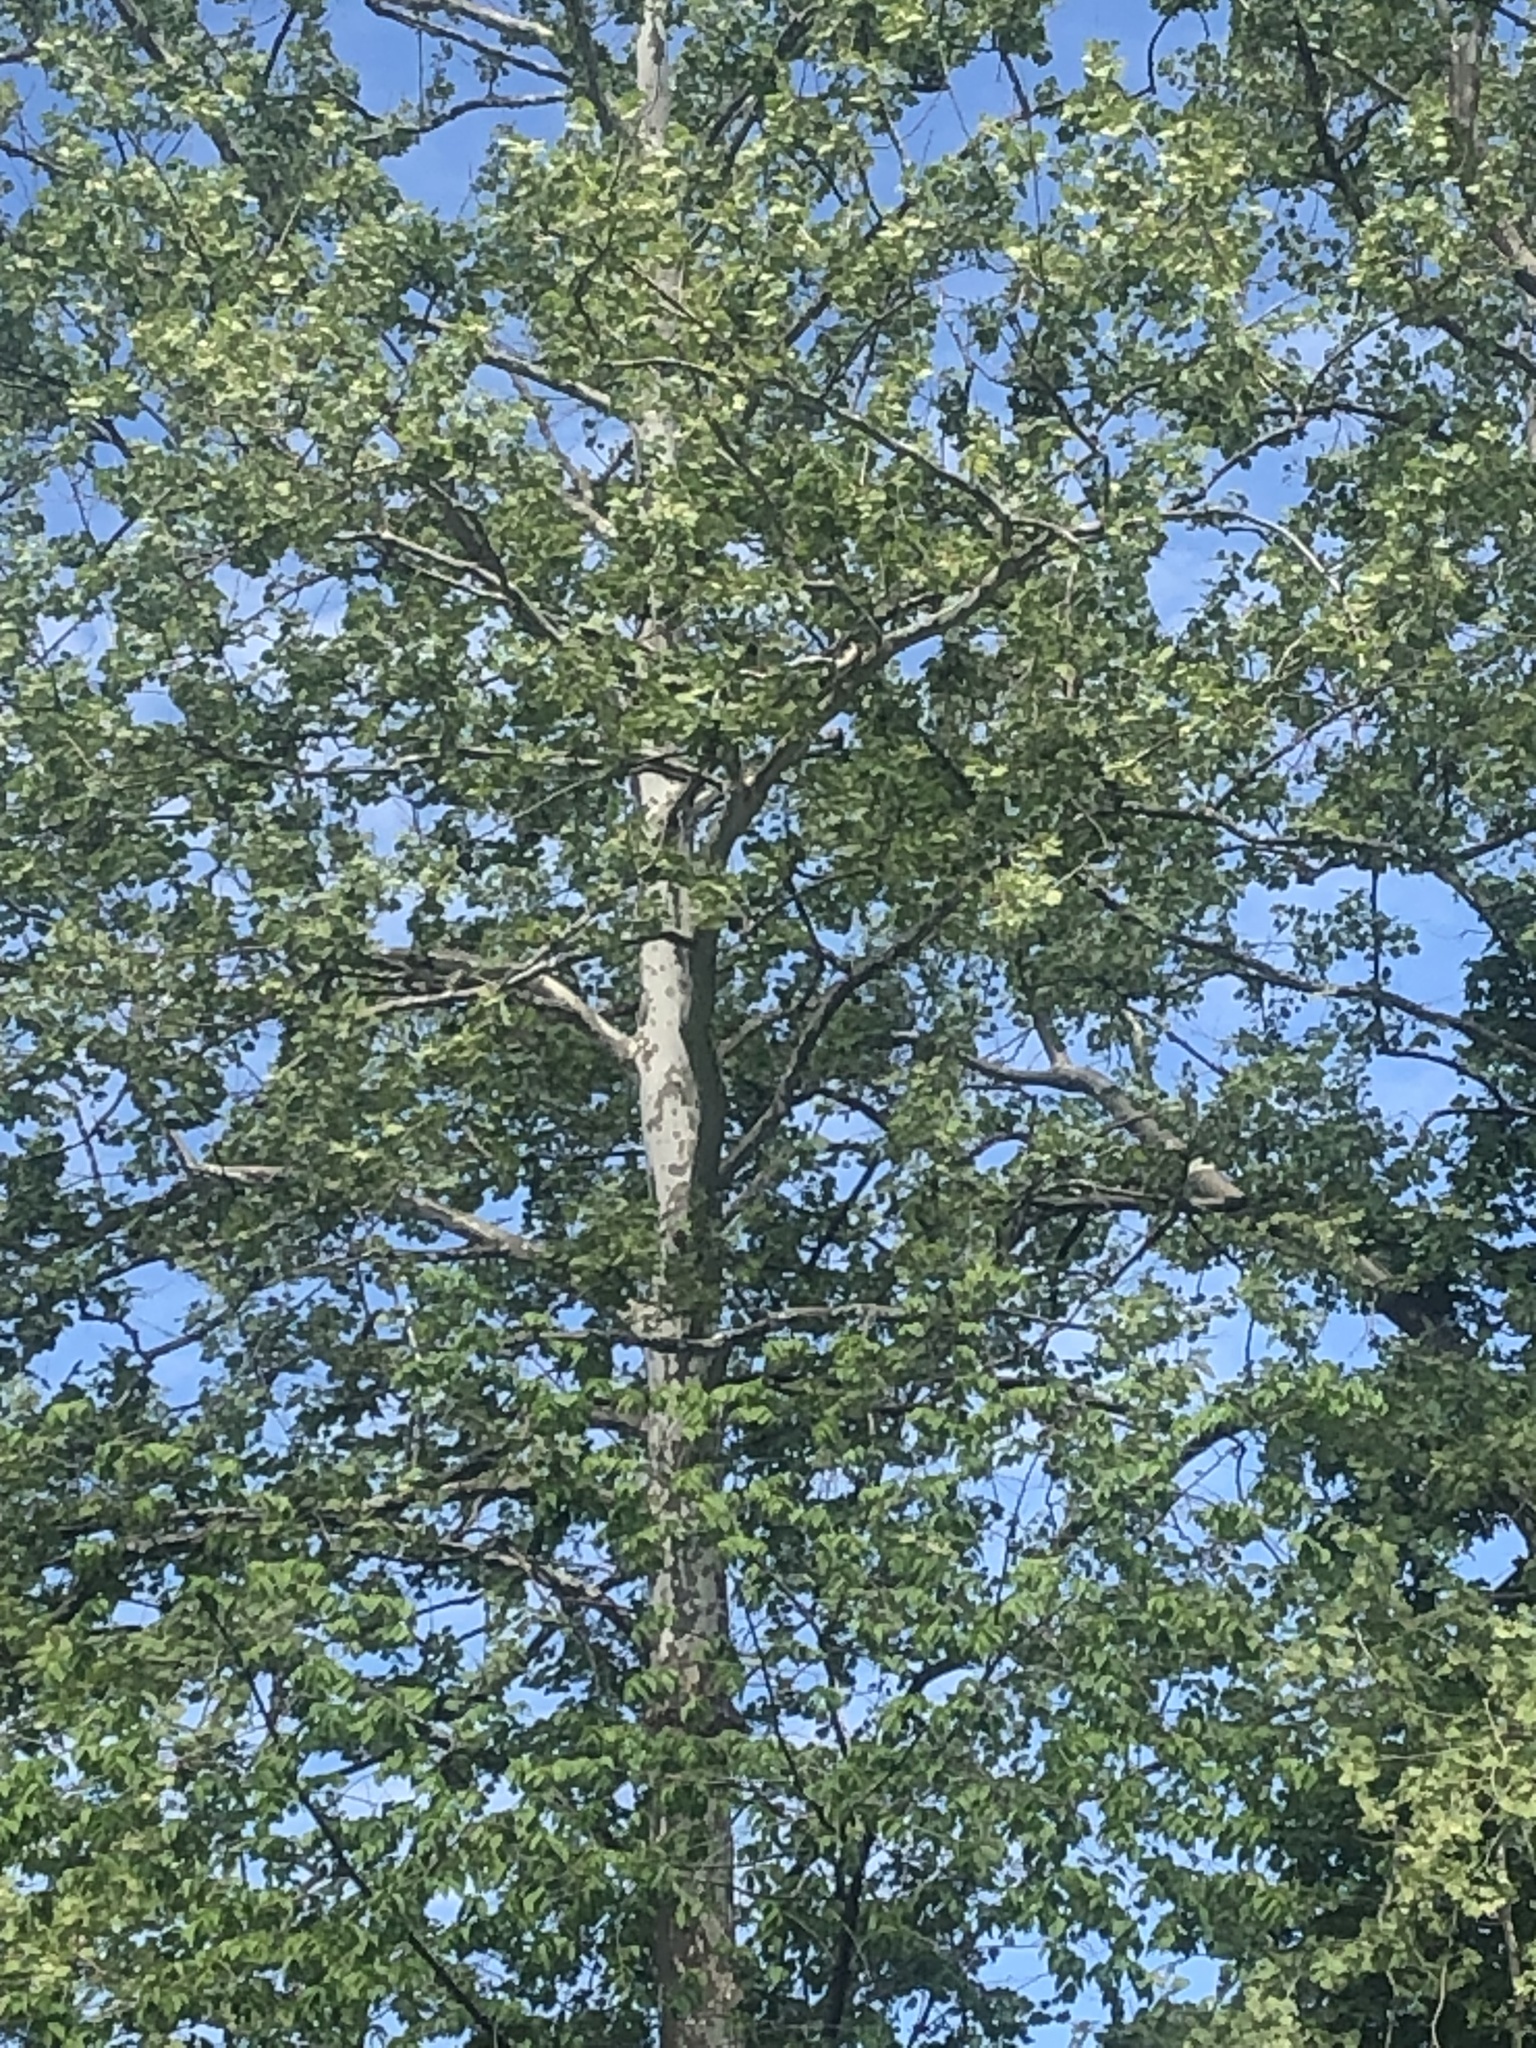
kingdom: Plantae
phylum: Tracheophyta
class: Magnoliopsida
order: Proteales
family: Platanaceae
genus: Platanus
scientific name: Platanus occidentalis
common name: American sycamore
